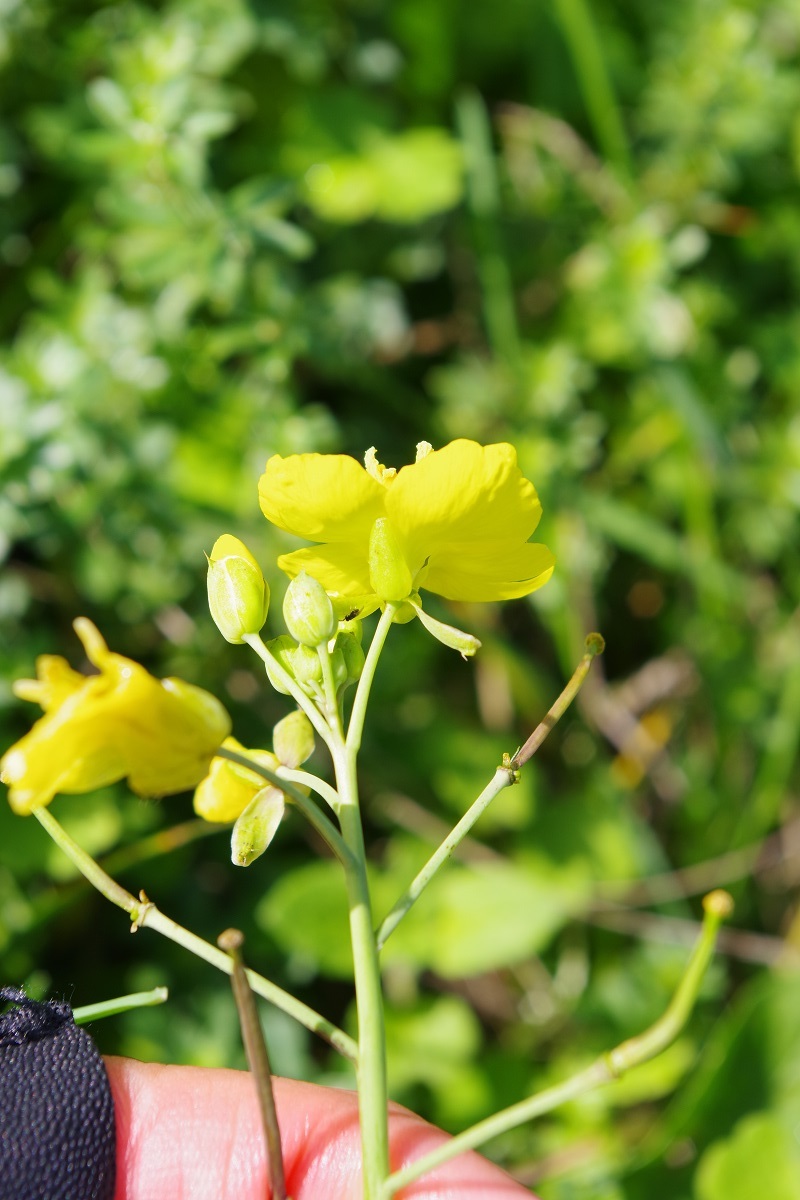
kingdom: Plantae
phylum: Tracheophyta
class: Magnoliopsida
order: Brassicales
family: Brassicaceae
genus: Diplotaxis
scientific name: Diplotaxis tenuifolia
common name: Perennial wall-rocket
